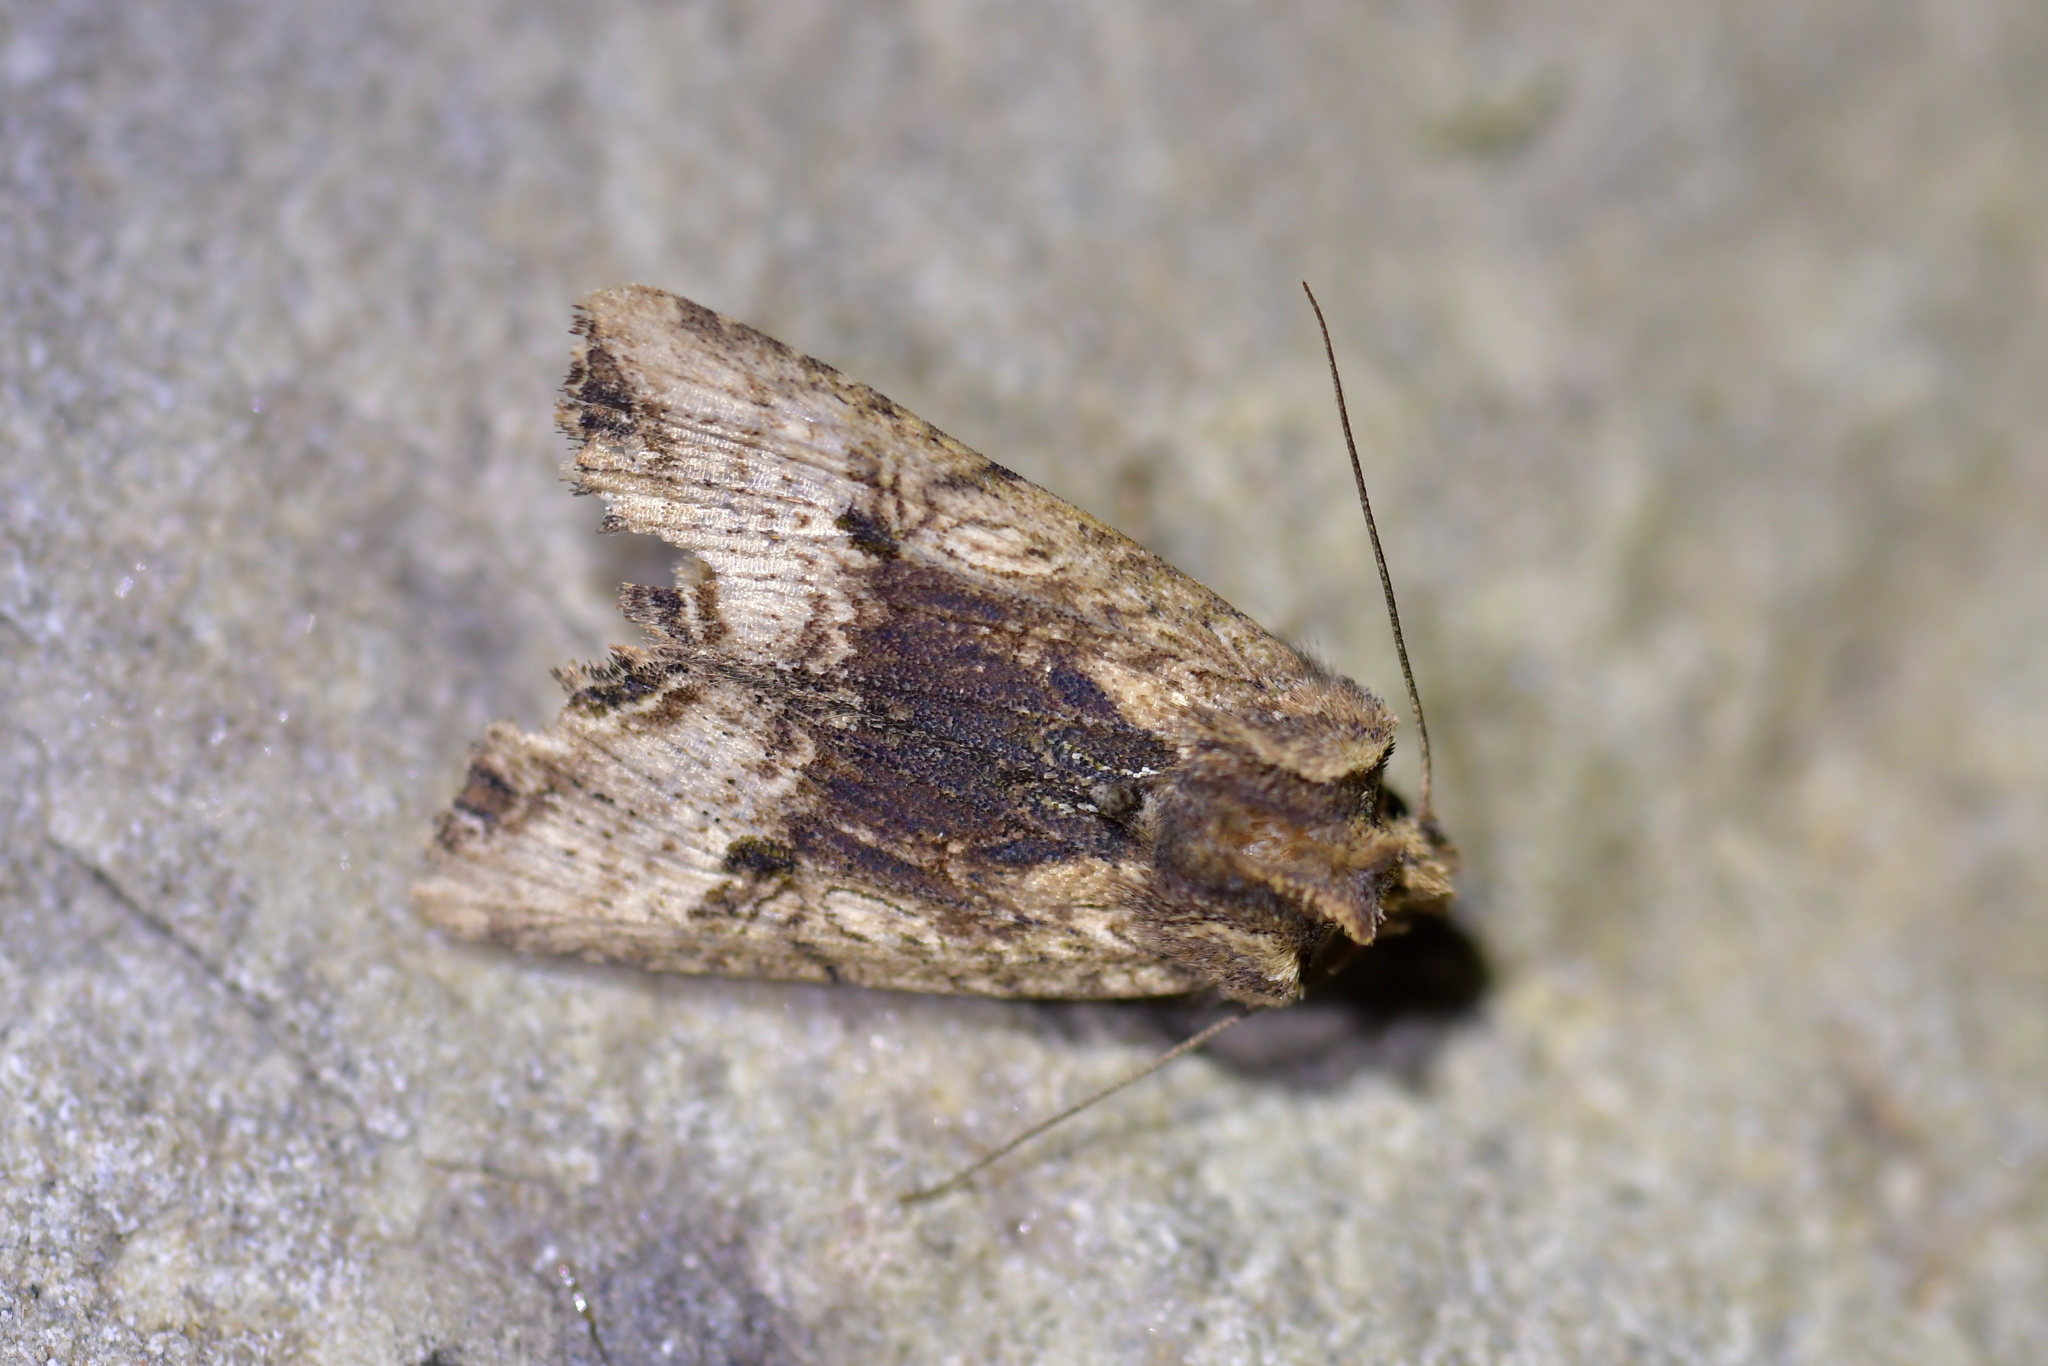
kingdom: Animalia
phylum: Arthropoda
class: Insecta
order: Lepidoptera
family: Noctuidae
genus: Meterana
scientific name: Meterana coeleno
